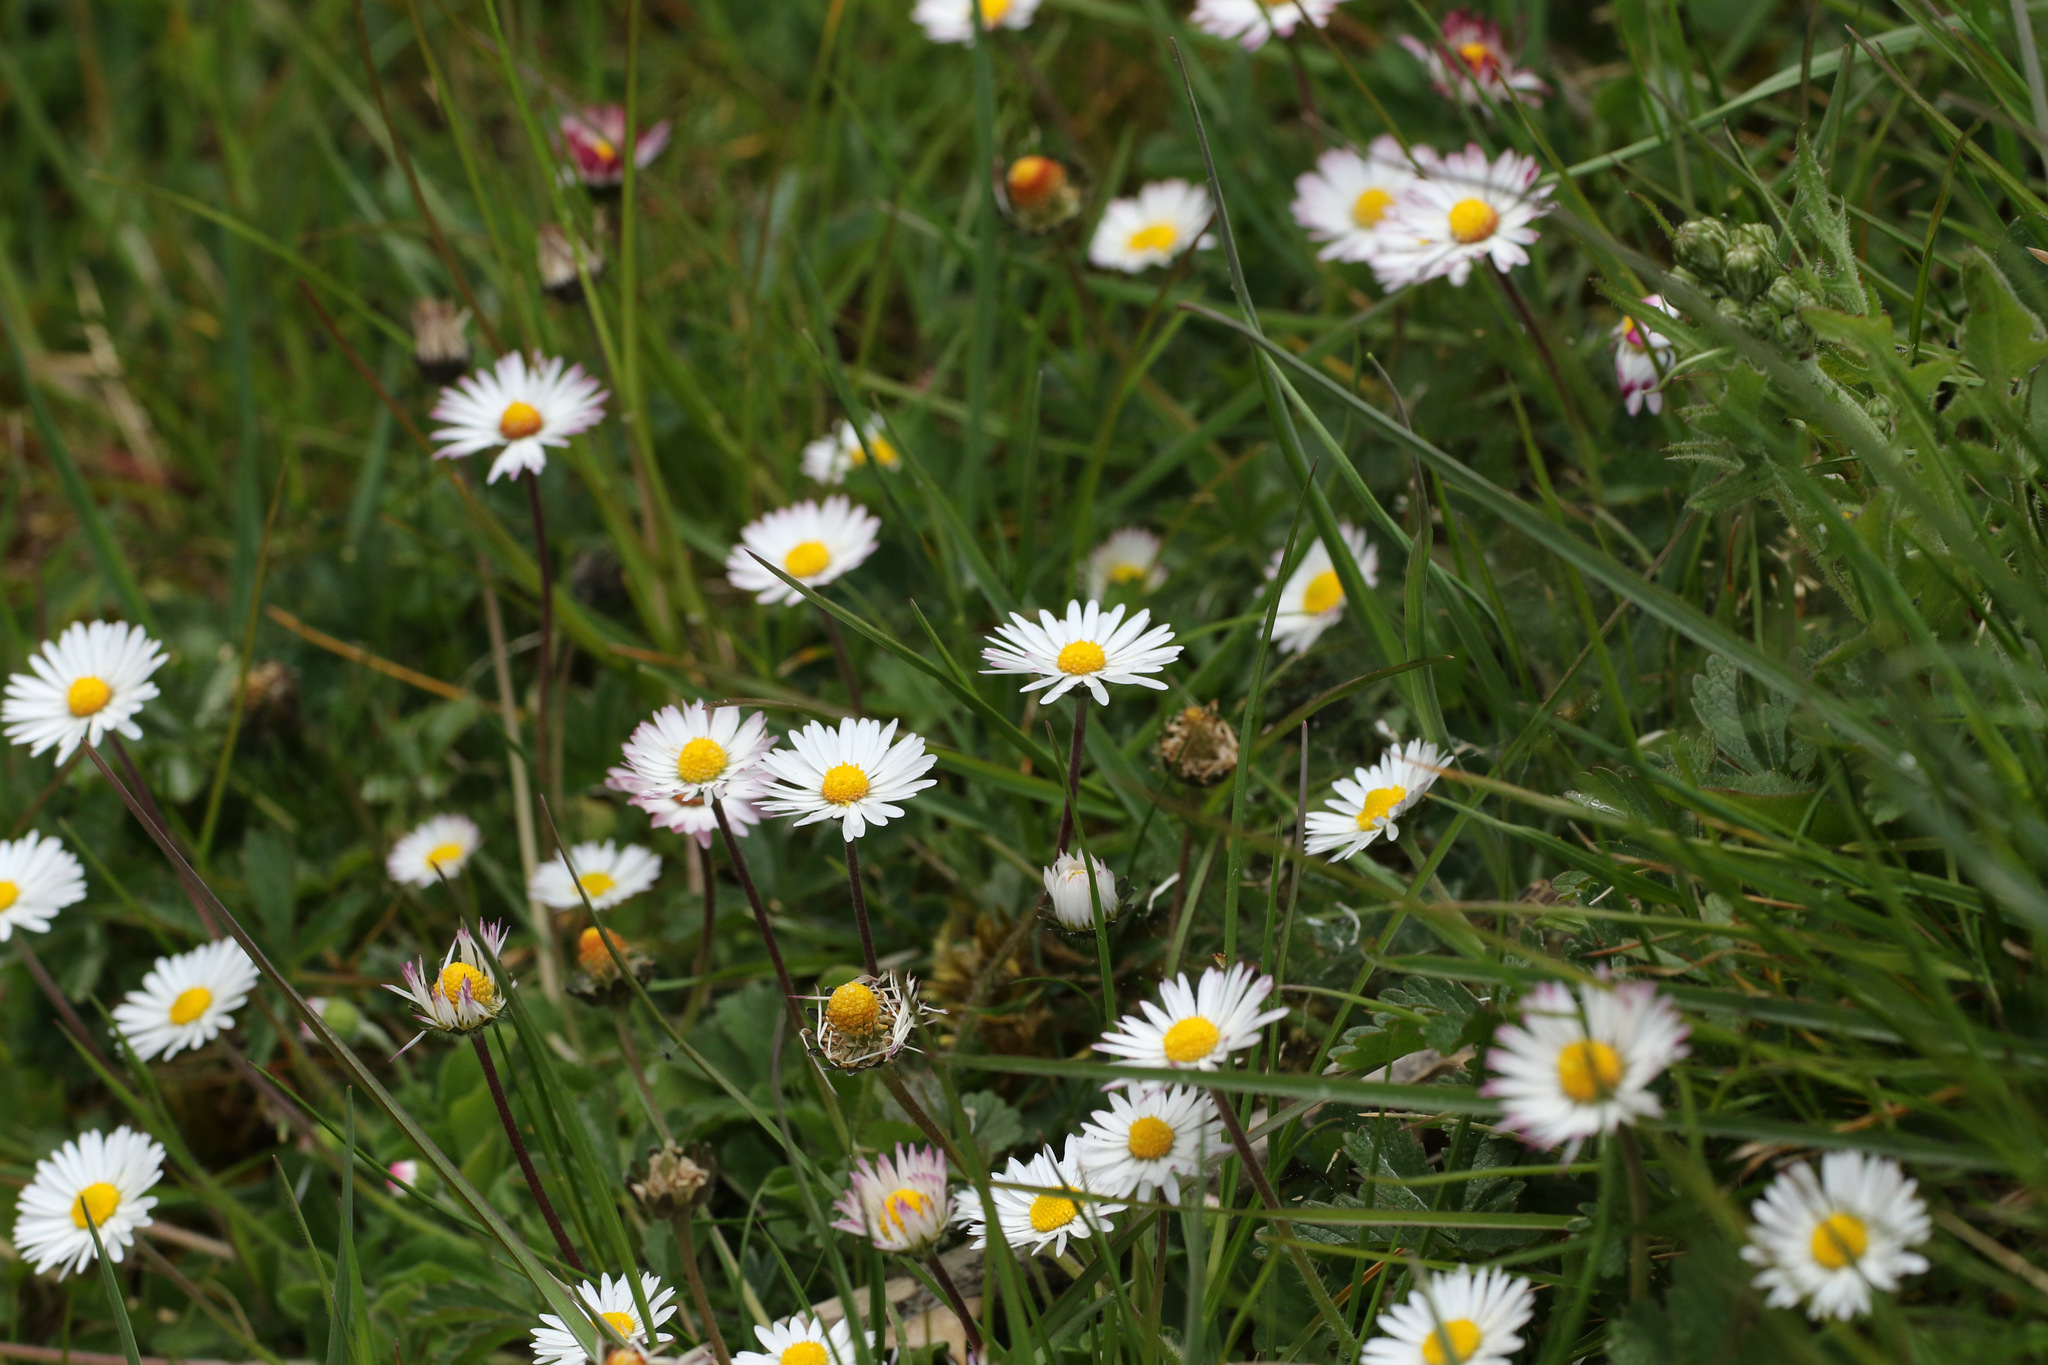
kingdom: Plantae
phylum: Tracheophyta
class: Magnoliopsida
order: Asterales
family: Asteraceae
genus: Bellis
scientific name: Bellis perennis
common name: Lawndaisy
